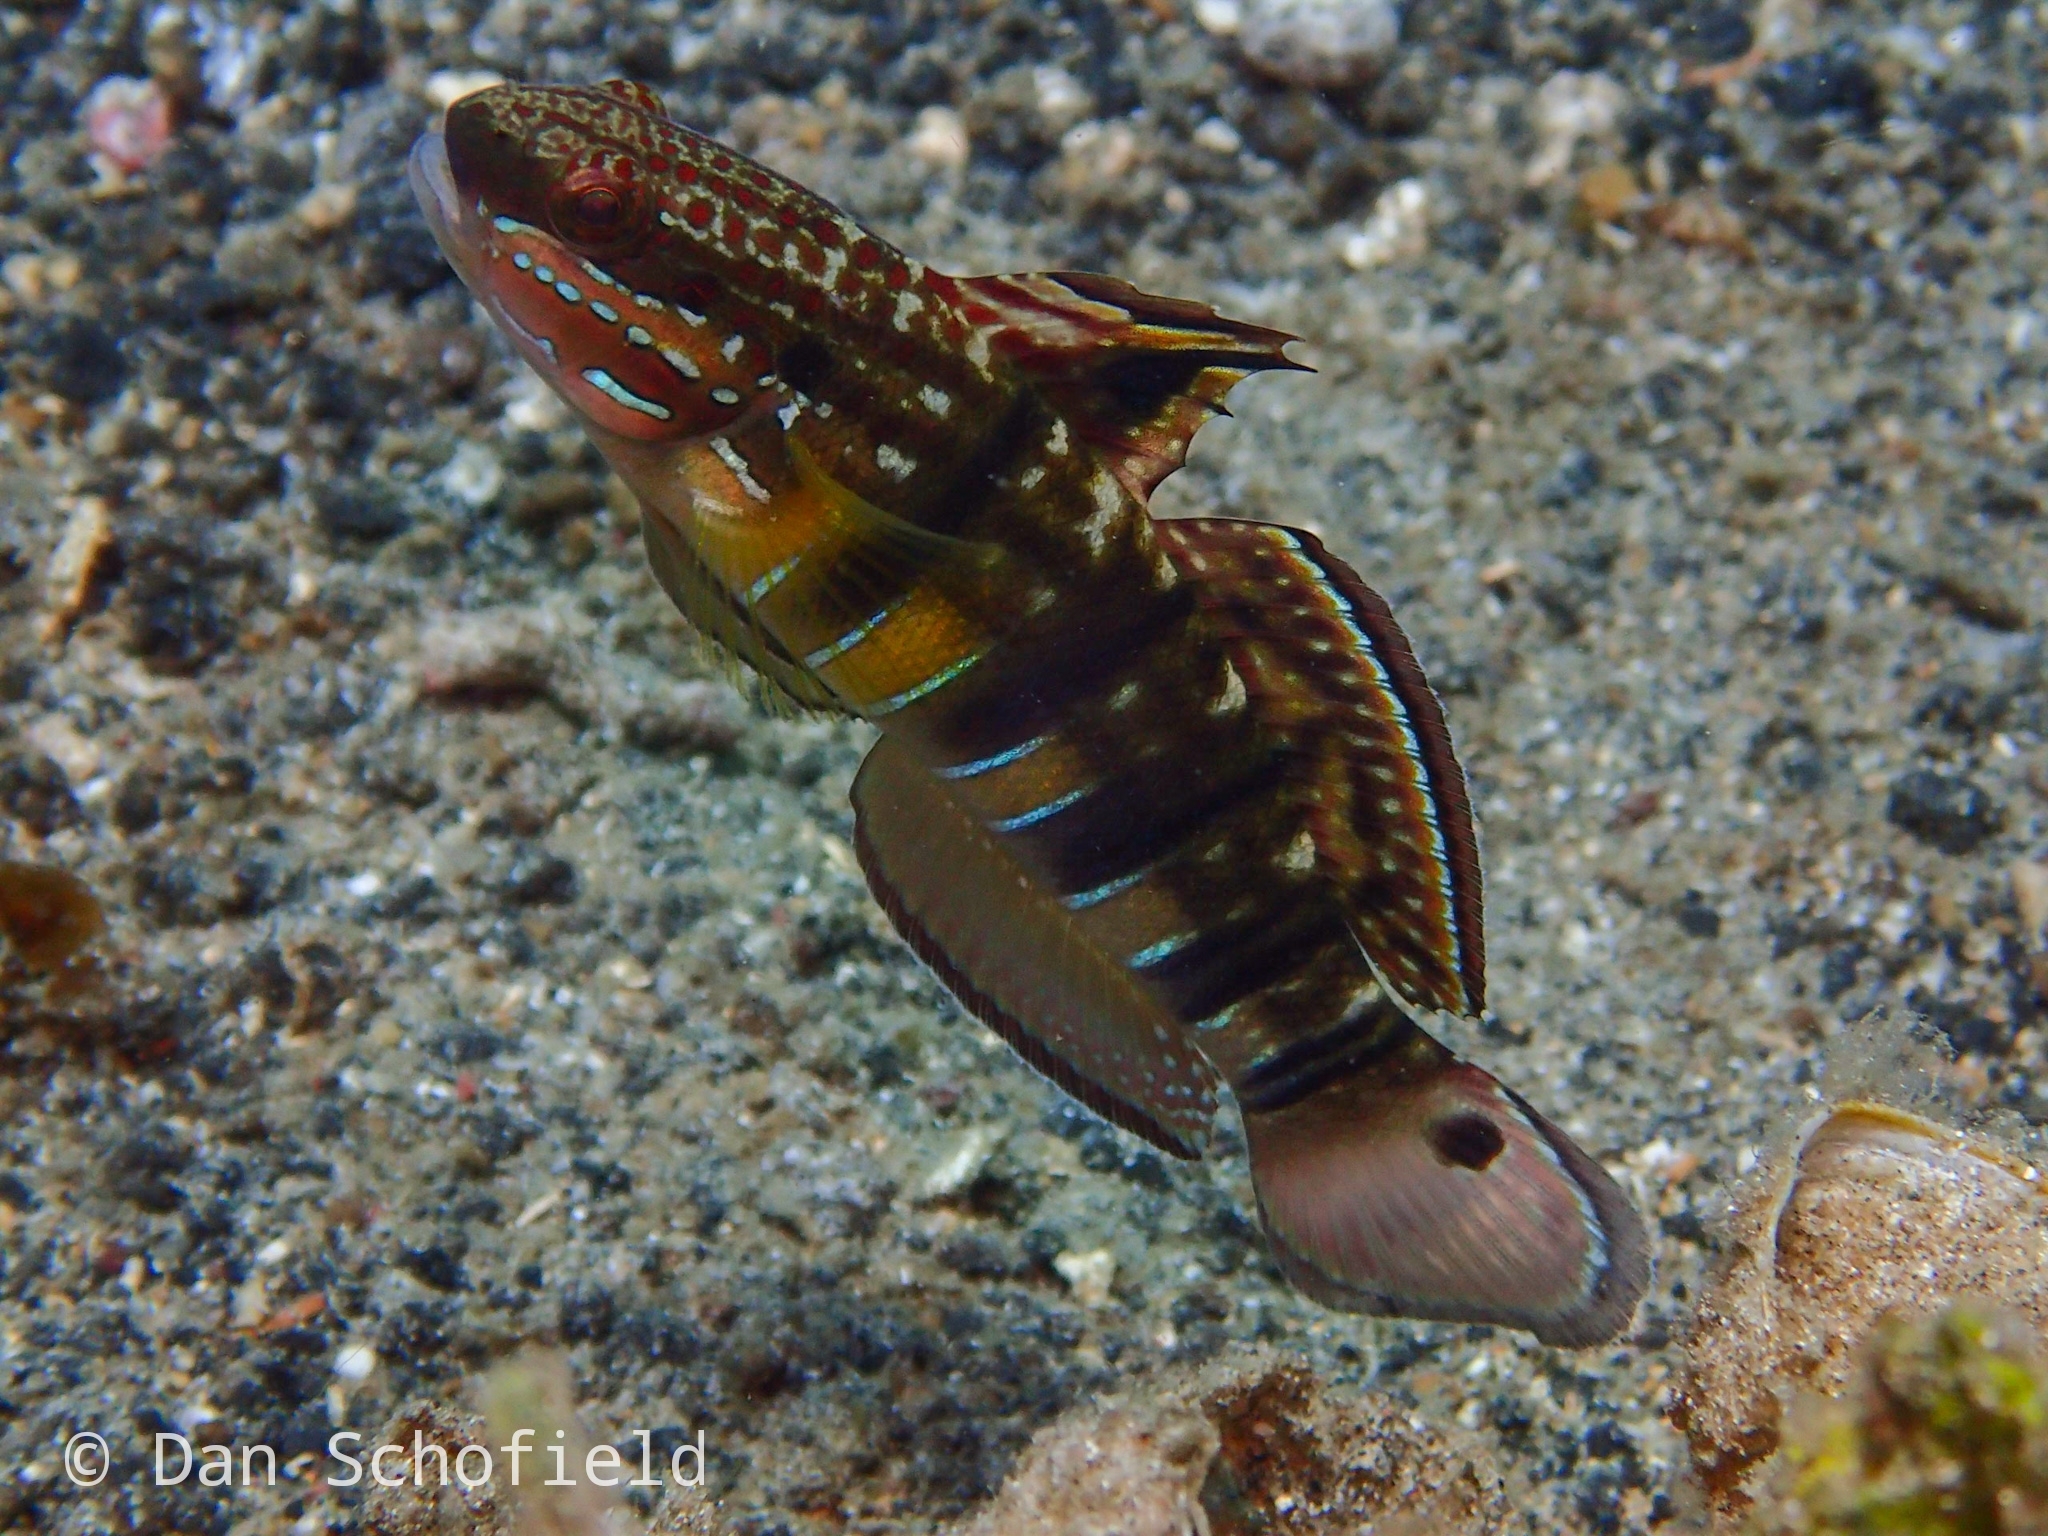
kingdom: Animalia
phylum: Chordata
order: Perciformes
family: Gobiidae
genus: Amblygobius
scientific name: Amblygobius phalaena
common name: Banded goby
